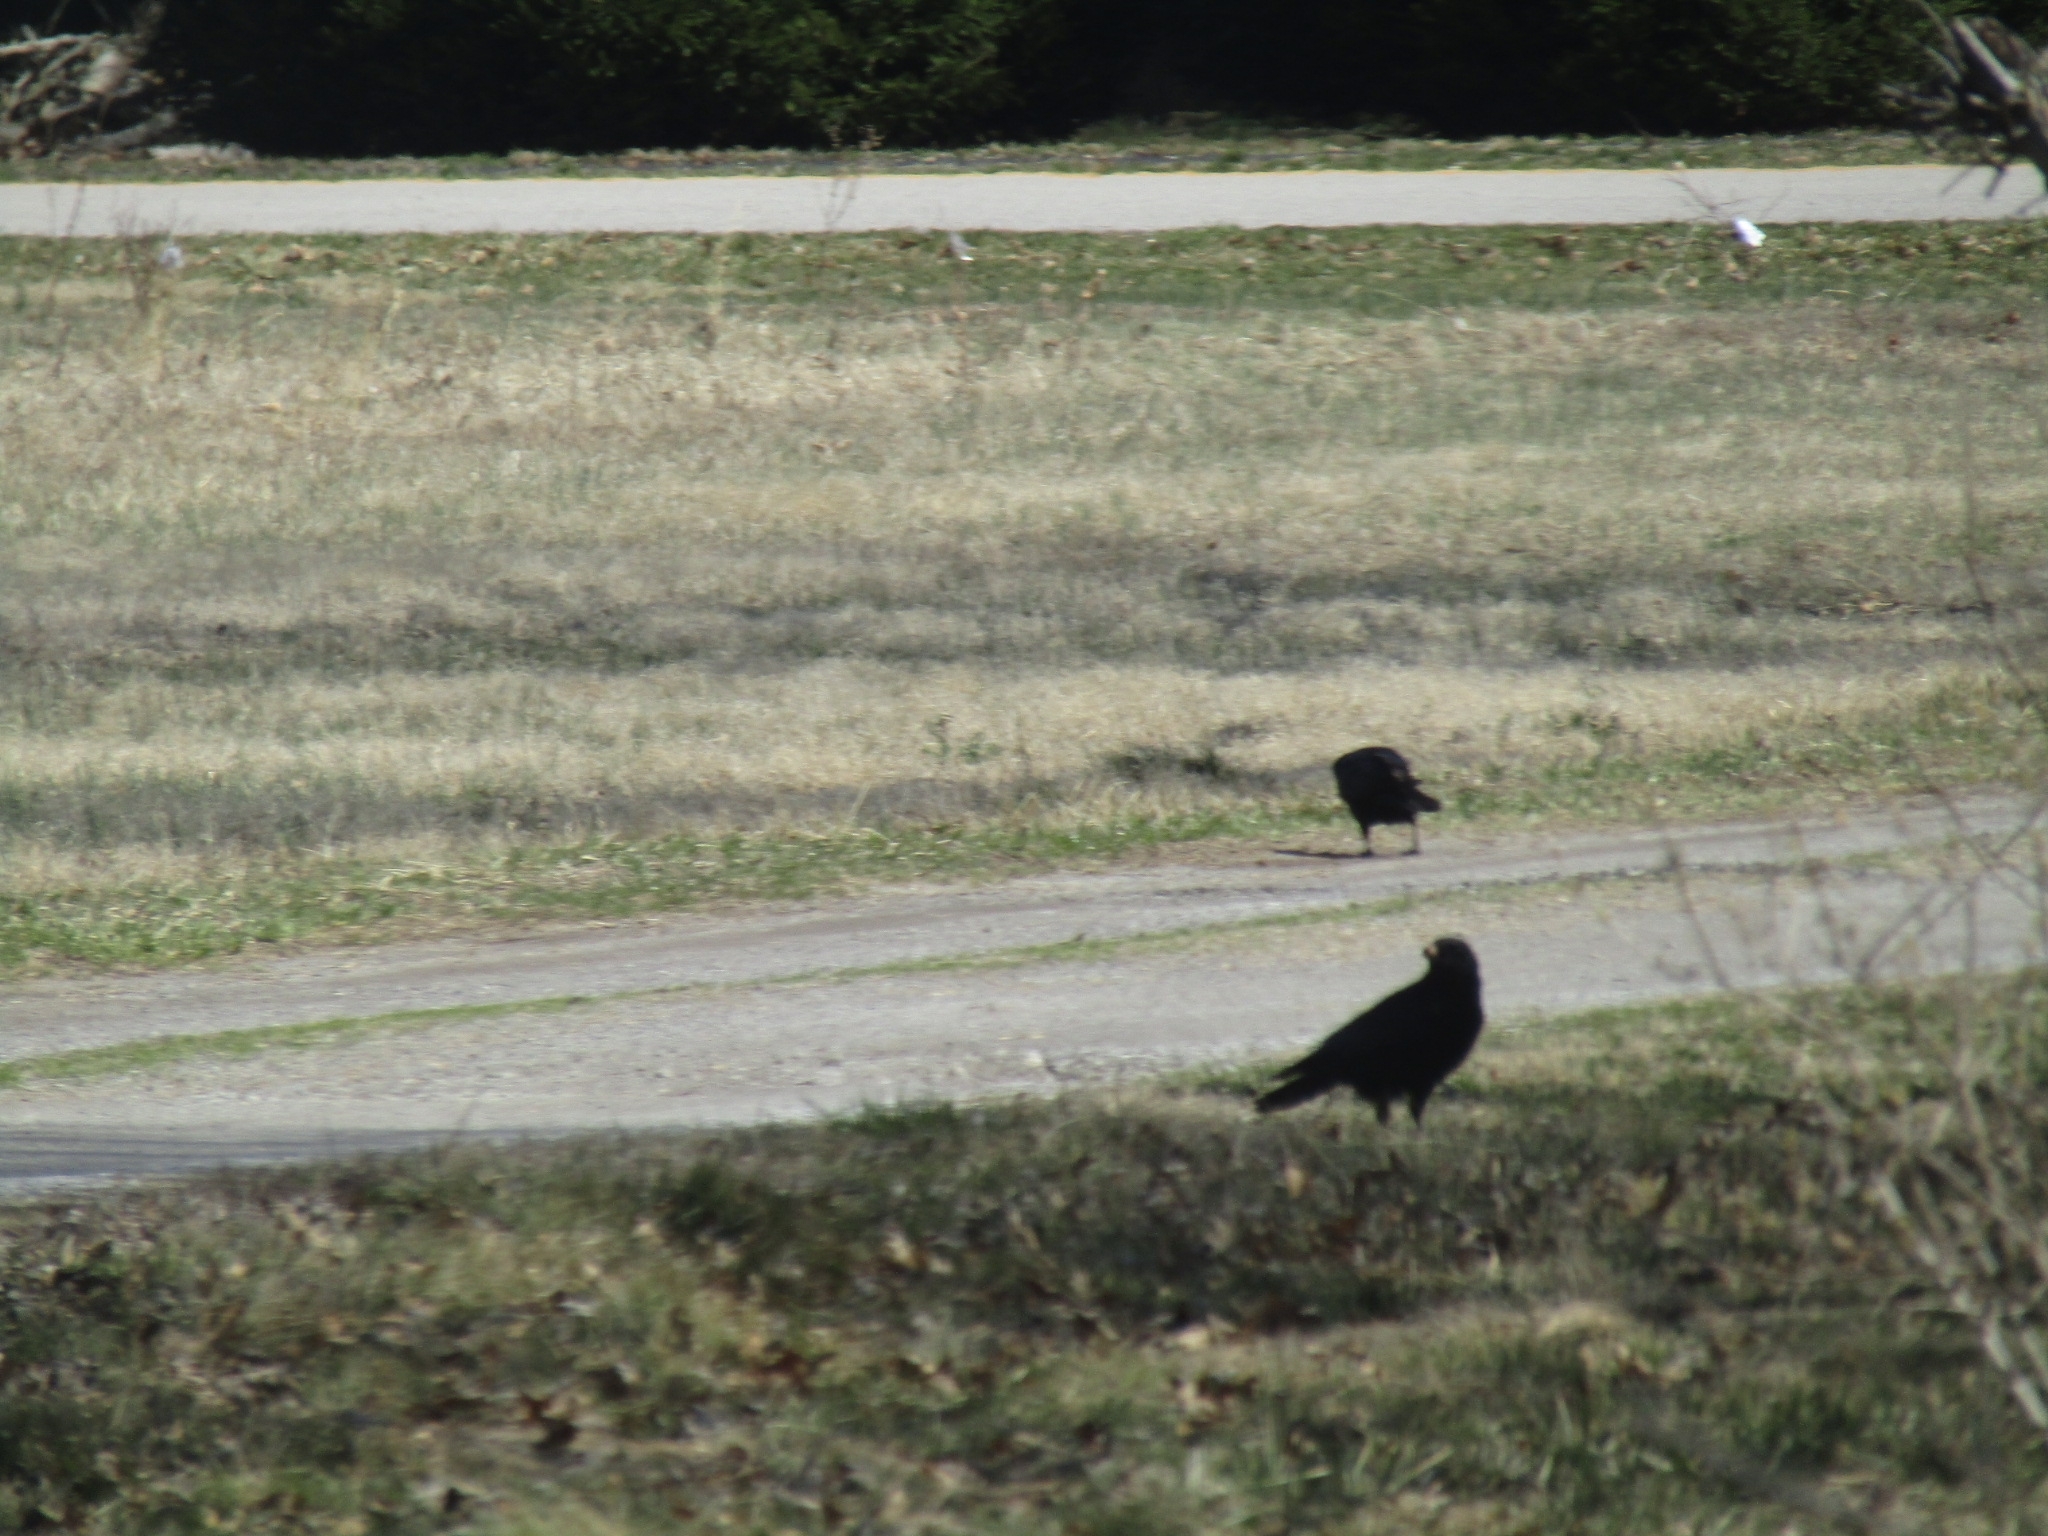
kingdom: Animalia
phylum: Chordata
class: Aves
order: Passeriformes
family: Corvidae
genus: Corvus
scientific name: Corvus brachyrhynchos
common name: American crow
